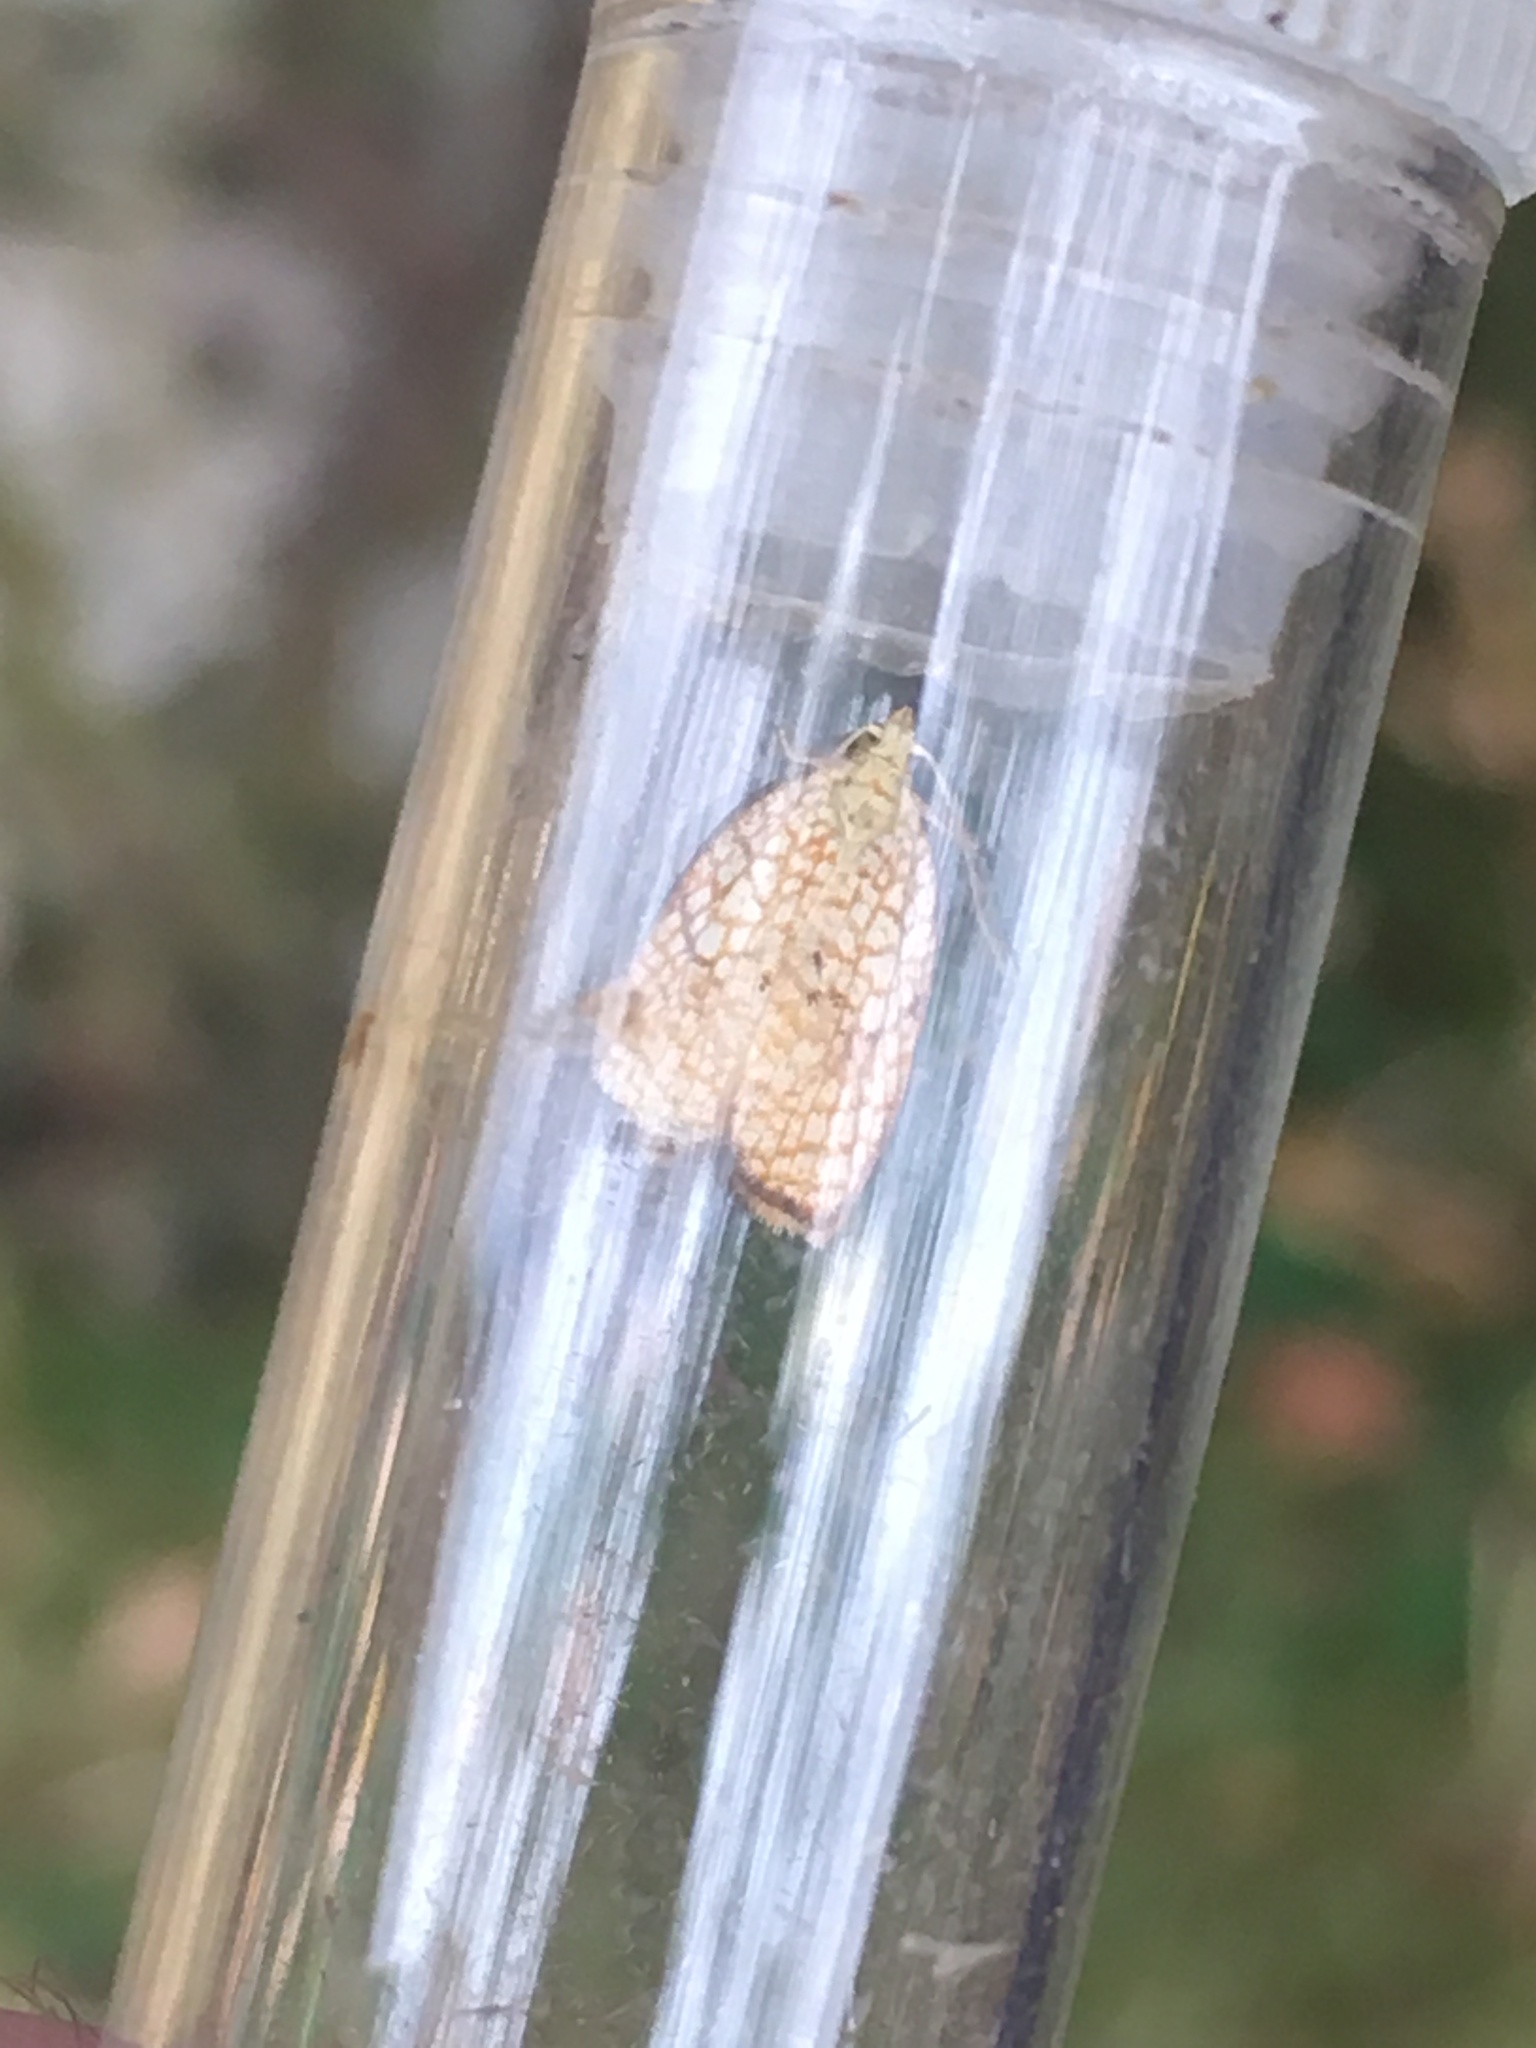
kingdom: Animalia
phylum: Arthropoda
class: Insecta
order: Lepidoptera
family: Tortricidae
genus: Acleris
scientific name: Acleris forsskaleana
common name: Maple button
